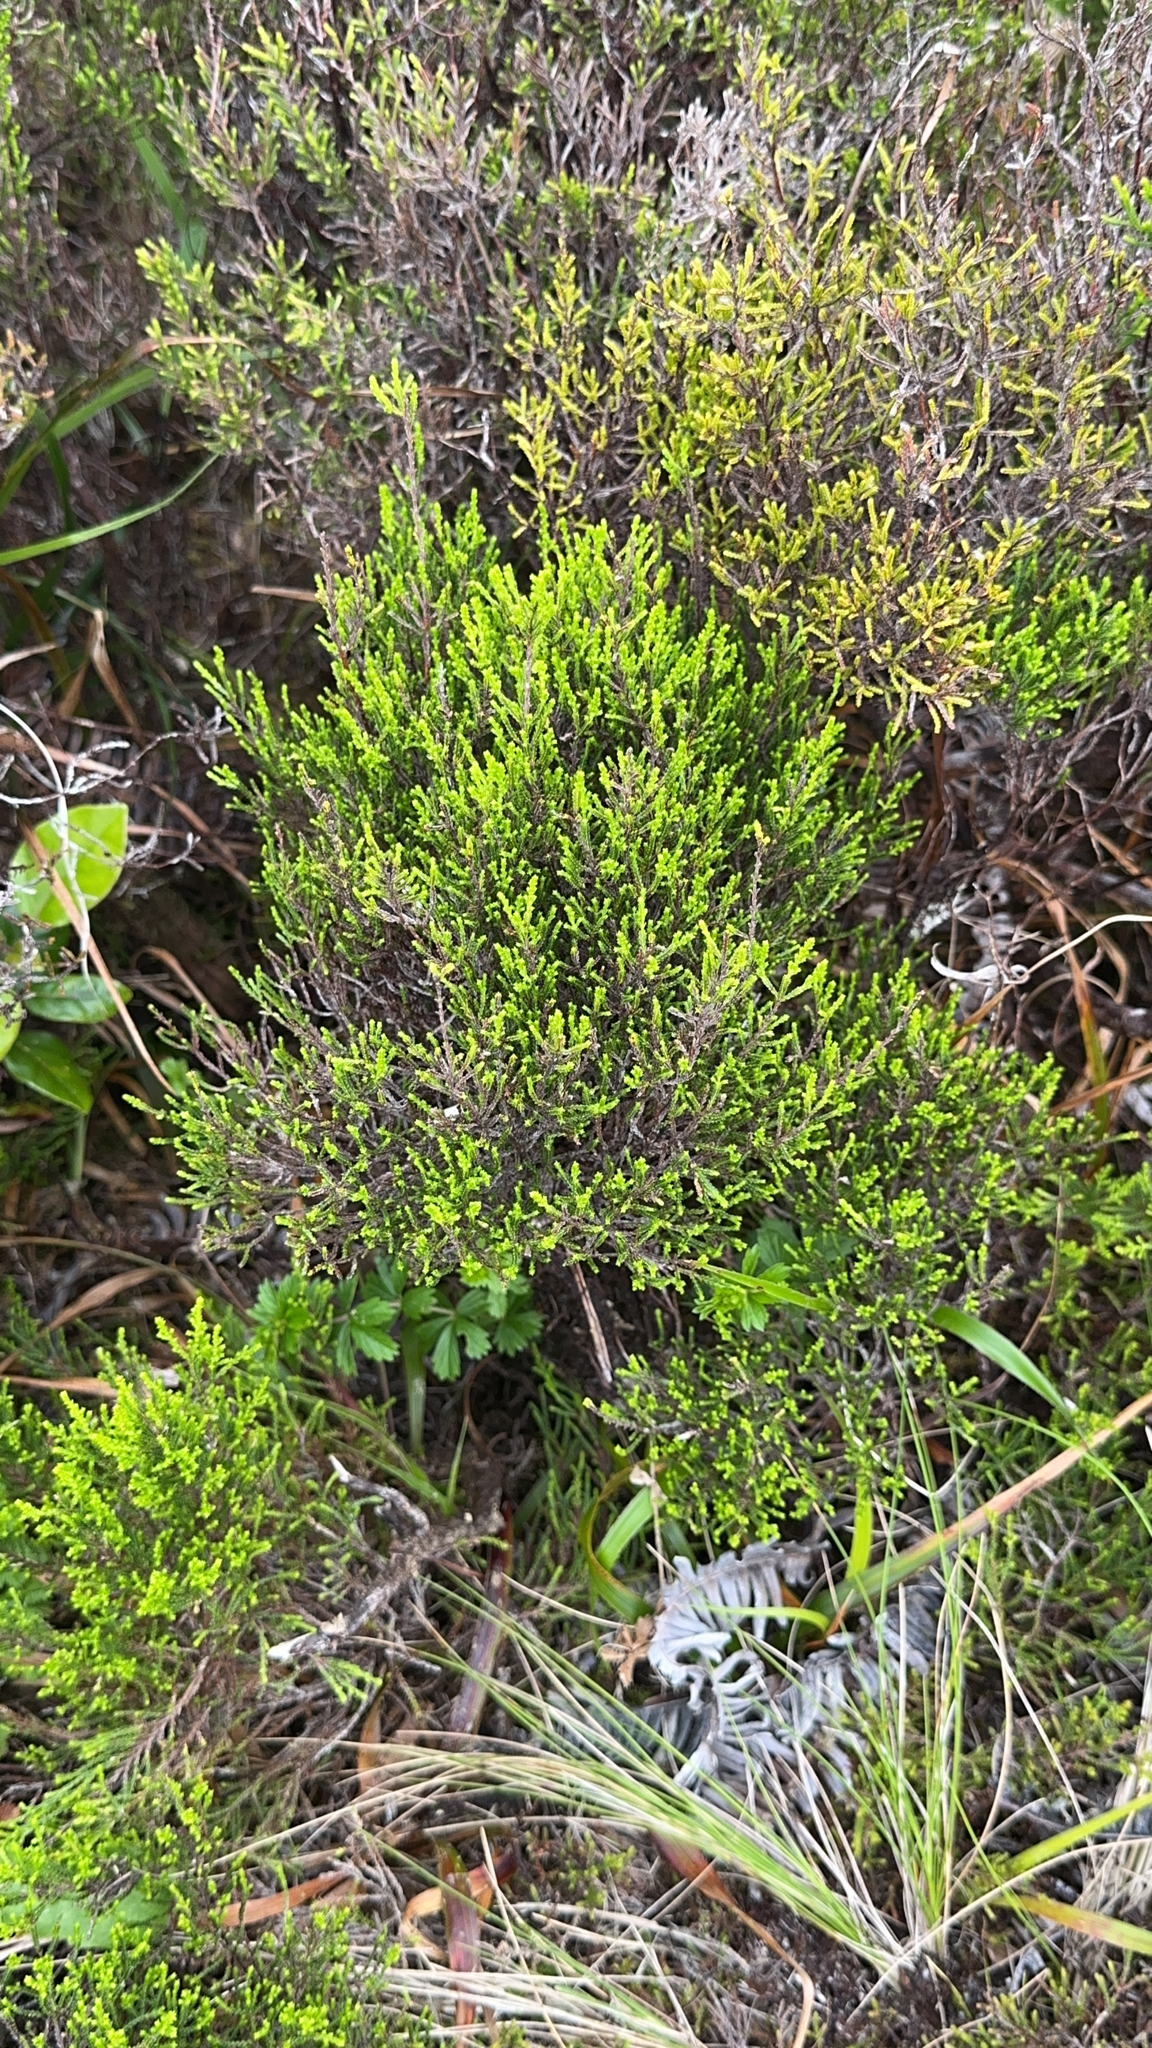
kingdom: Plantae
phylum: Tracheophyta
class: Magnoliopsida
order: Ericales
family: Ericaceae
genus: Calluna
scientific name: Calluna vulgaris
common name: Heather
